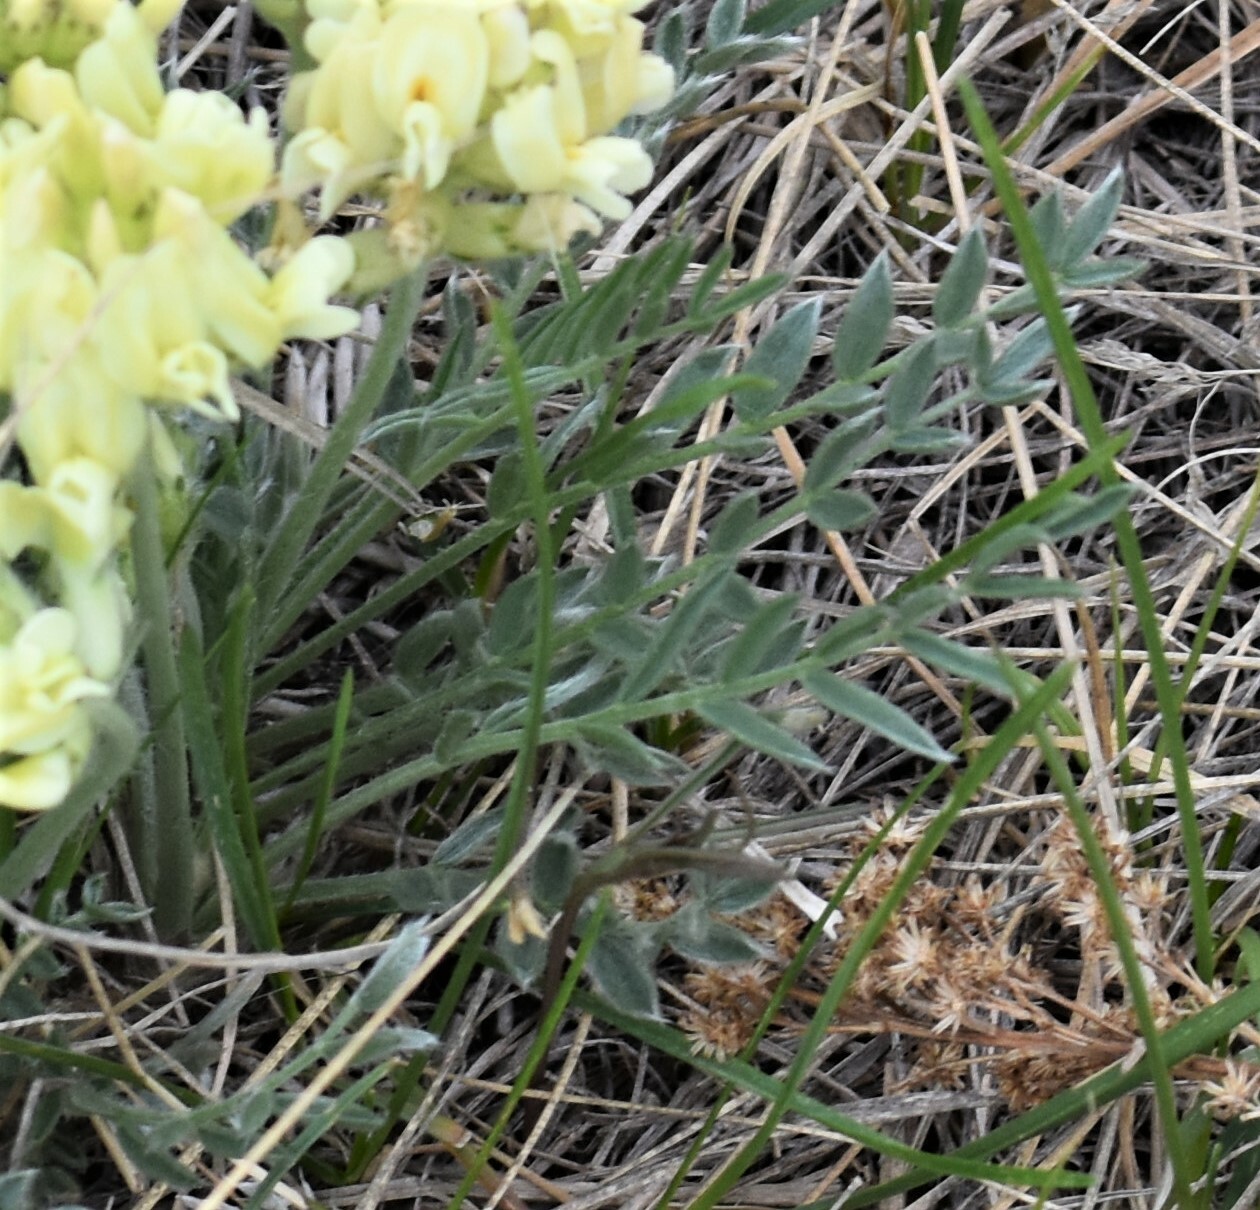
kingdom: Plantae
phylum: Tracheophyta
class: Magnoliopsida
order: Fabales
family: Fabaceae
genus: Oxytropis
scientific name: Oxytropis sericea
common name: Silky locoweed
